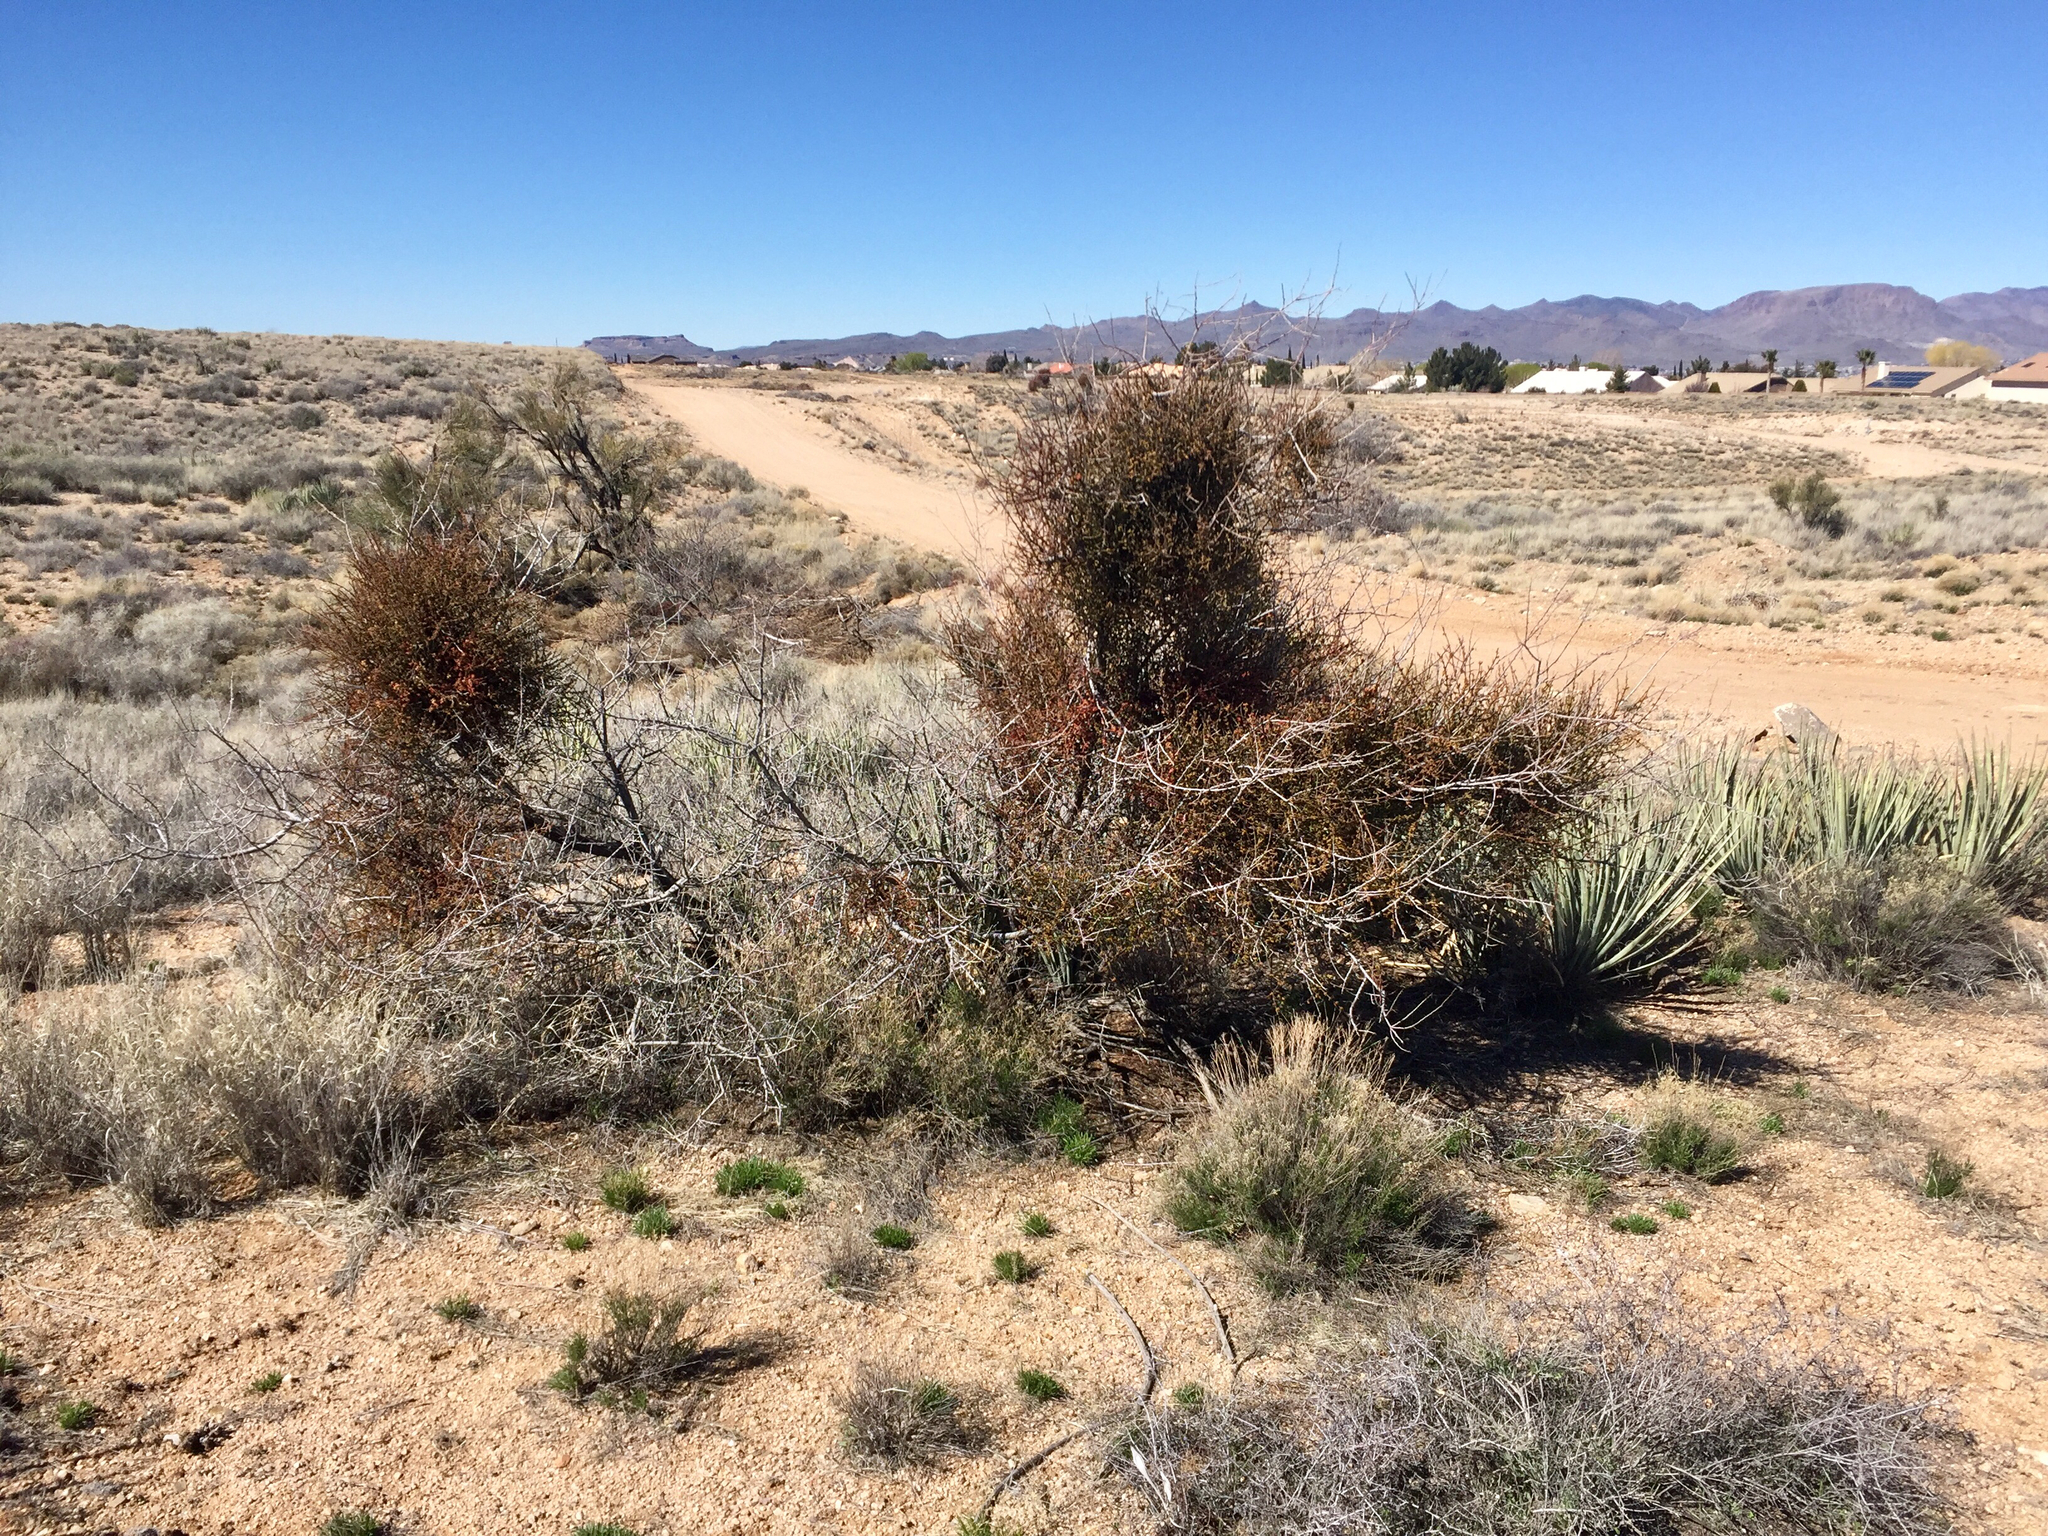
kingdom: Plantae
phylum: Tracheophyta
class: Magnoliopsida
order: Santalales
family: Viscaceae
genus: Phoradendron
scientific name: Phoradendron californicum
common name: Acacia mistletoe
